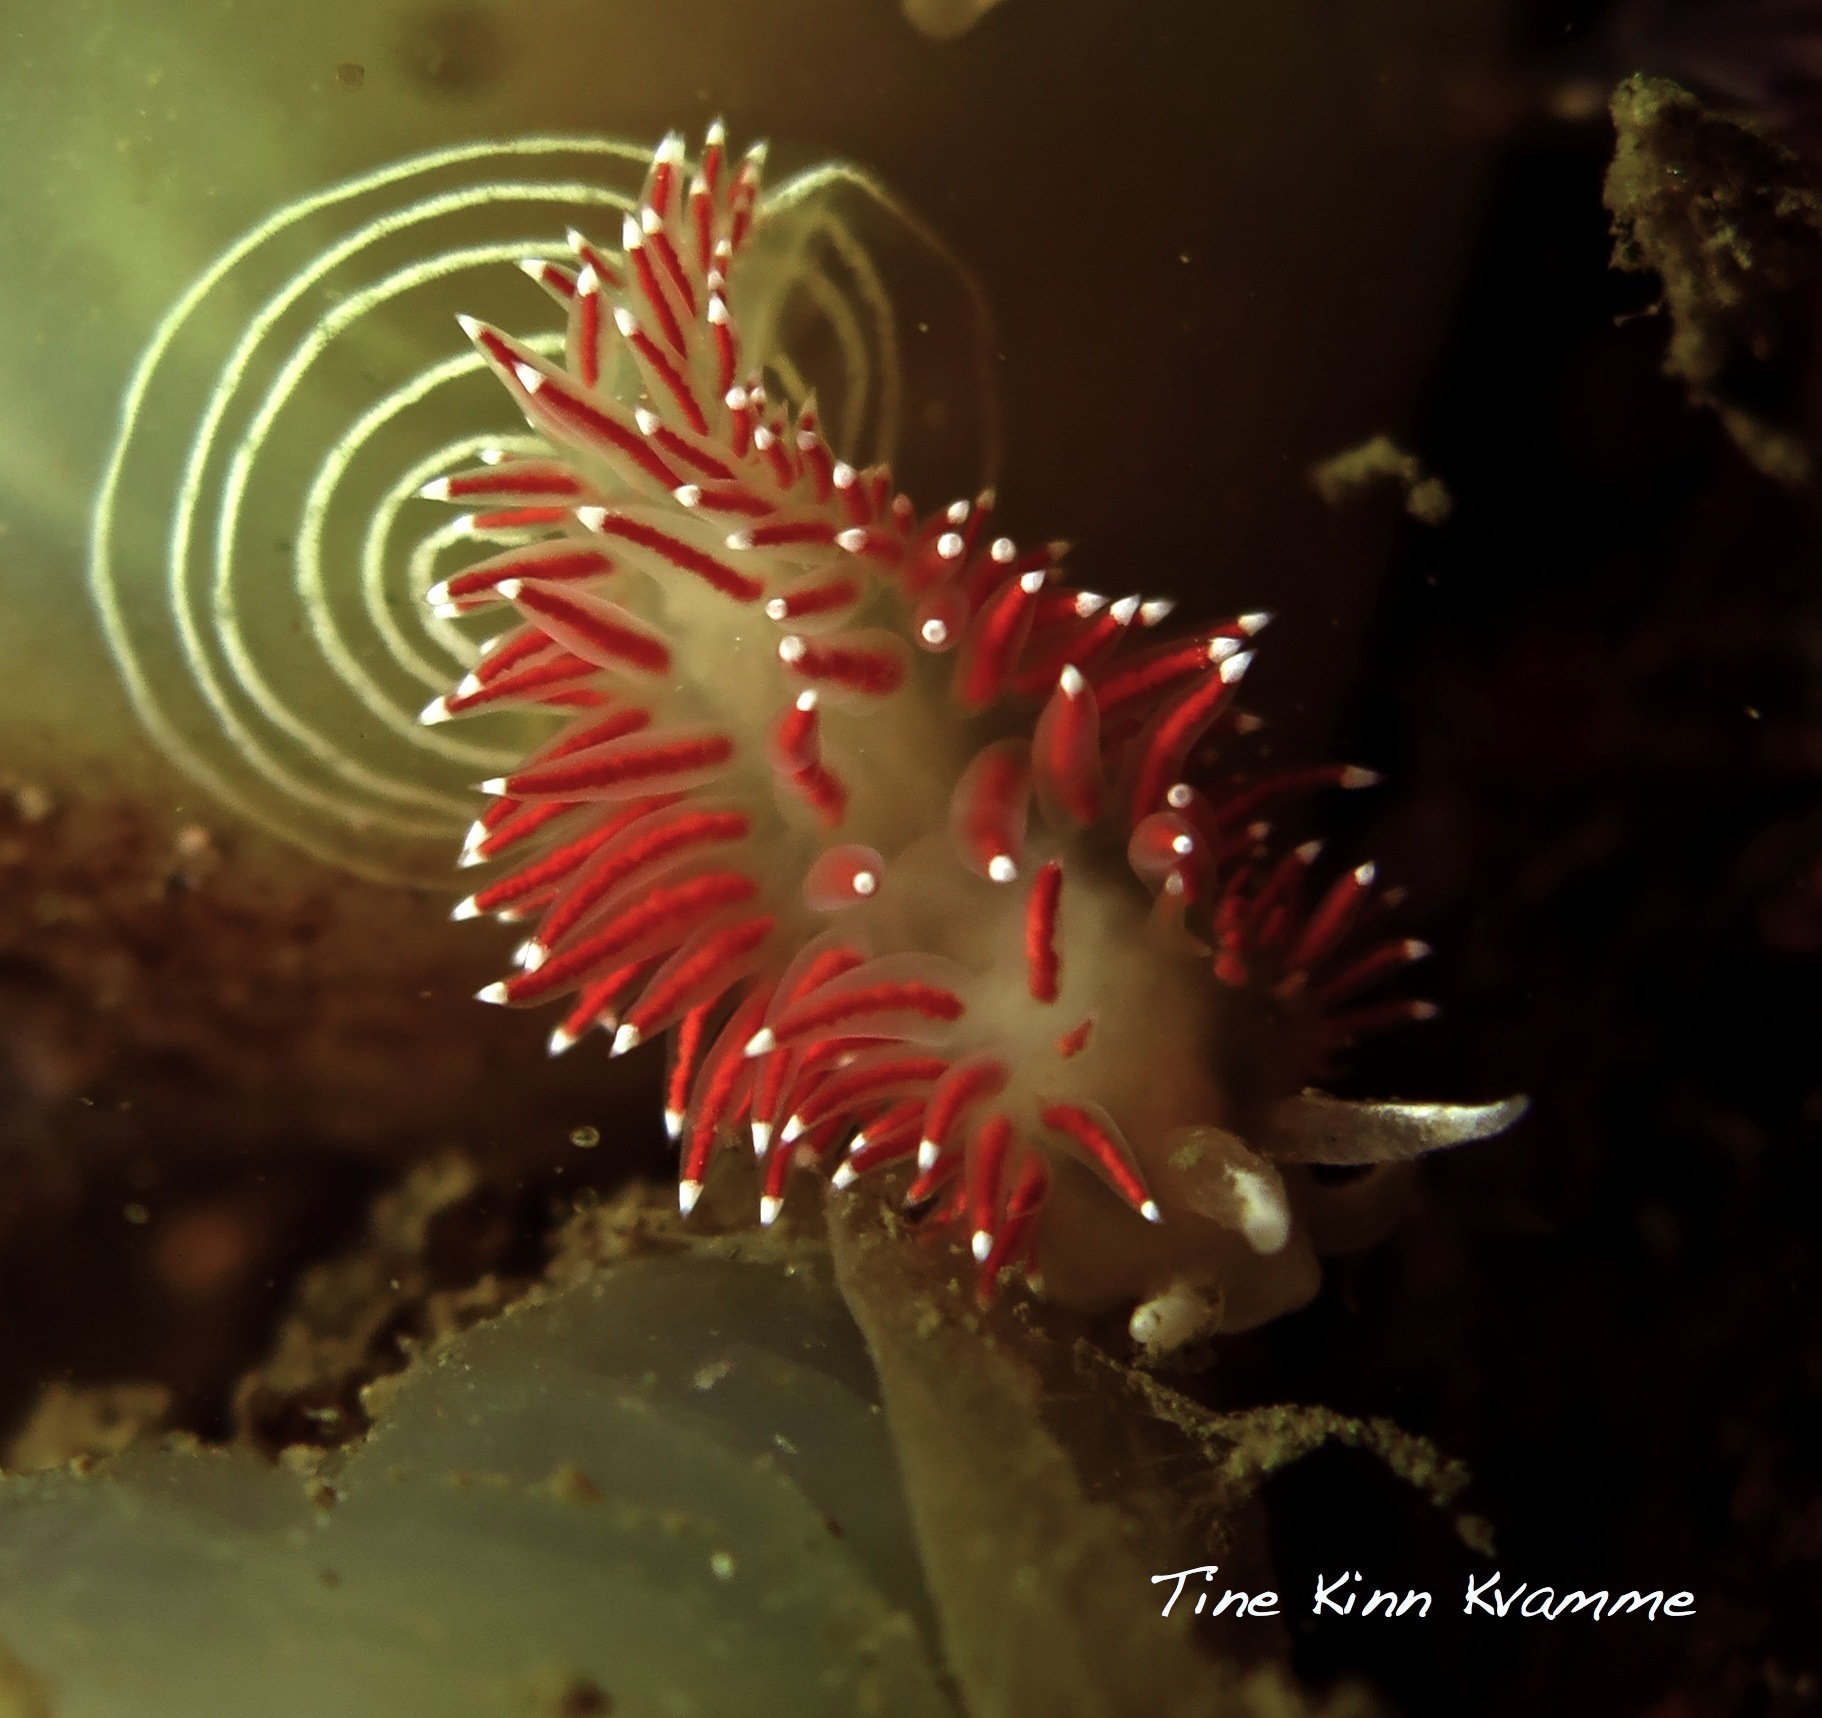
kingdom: Animalia
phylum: Mollusca
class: Gastropoda
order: Nudibranchia
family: Coryphellidae
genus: Coryphella
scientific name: Coryphella verrucosa
